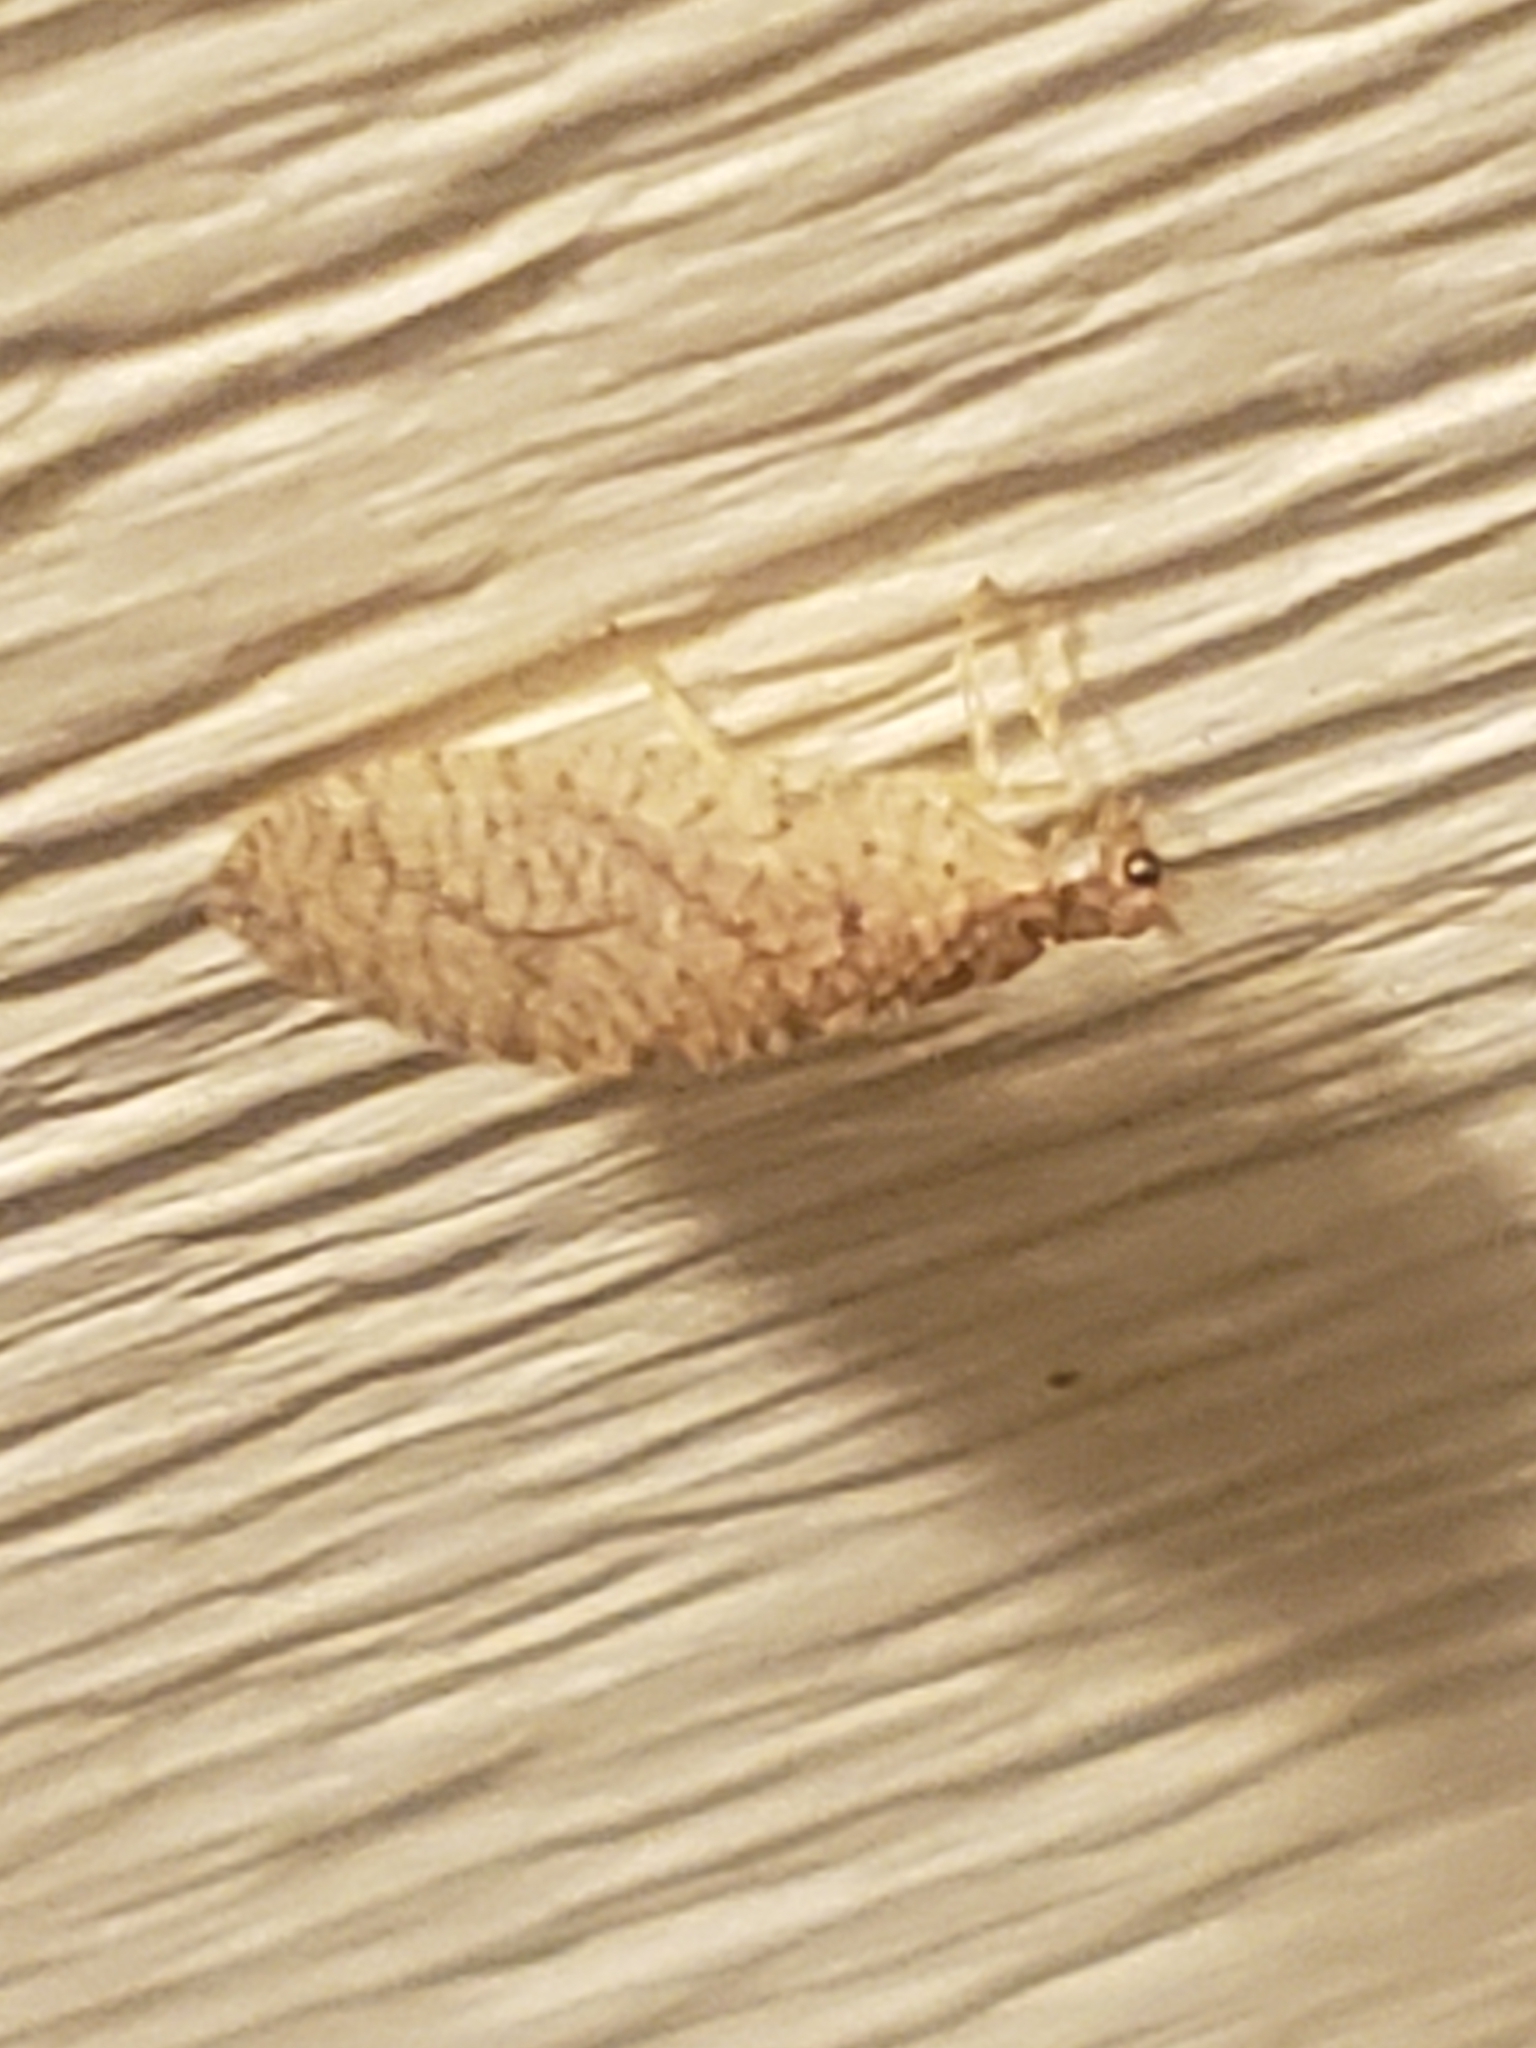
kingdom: Animalia
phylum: Arthropoda
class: Insecta
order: Neuroptera
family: Hemerobiidae
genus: Micromus
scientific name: Micromus posticus
